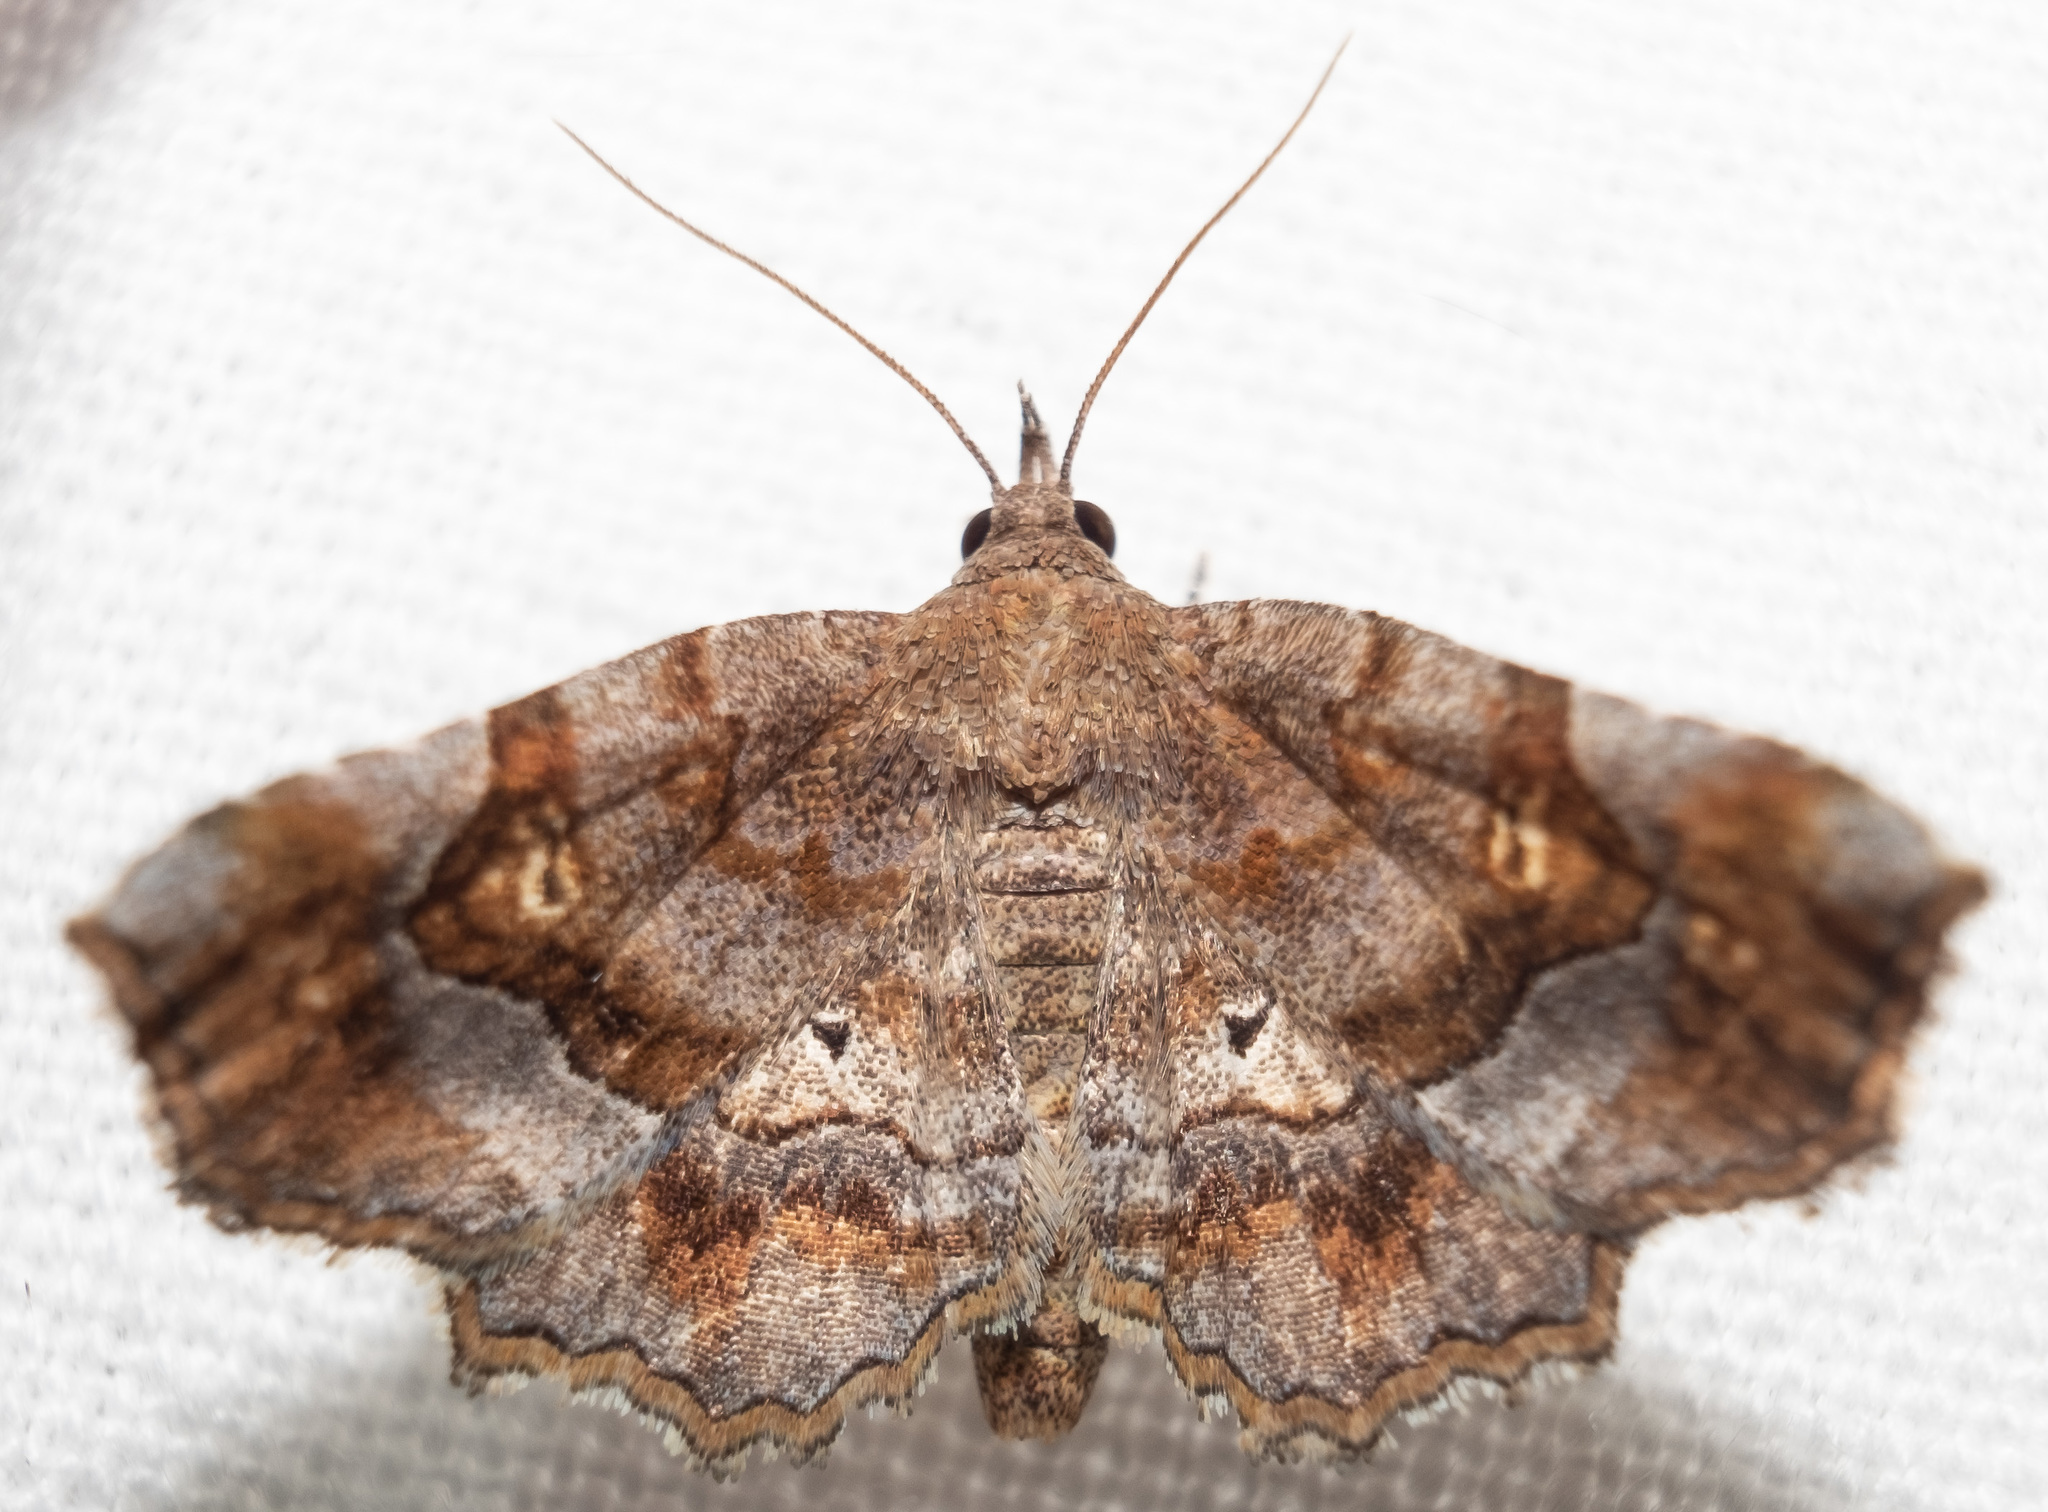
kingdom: Animalia
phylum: Arthropoda
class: Insecta
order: Lepidoptera
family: Erebidae
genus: Pangrapta
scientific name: Pangrapta decoralis
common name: Decorated owlet
